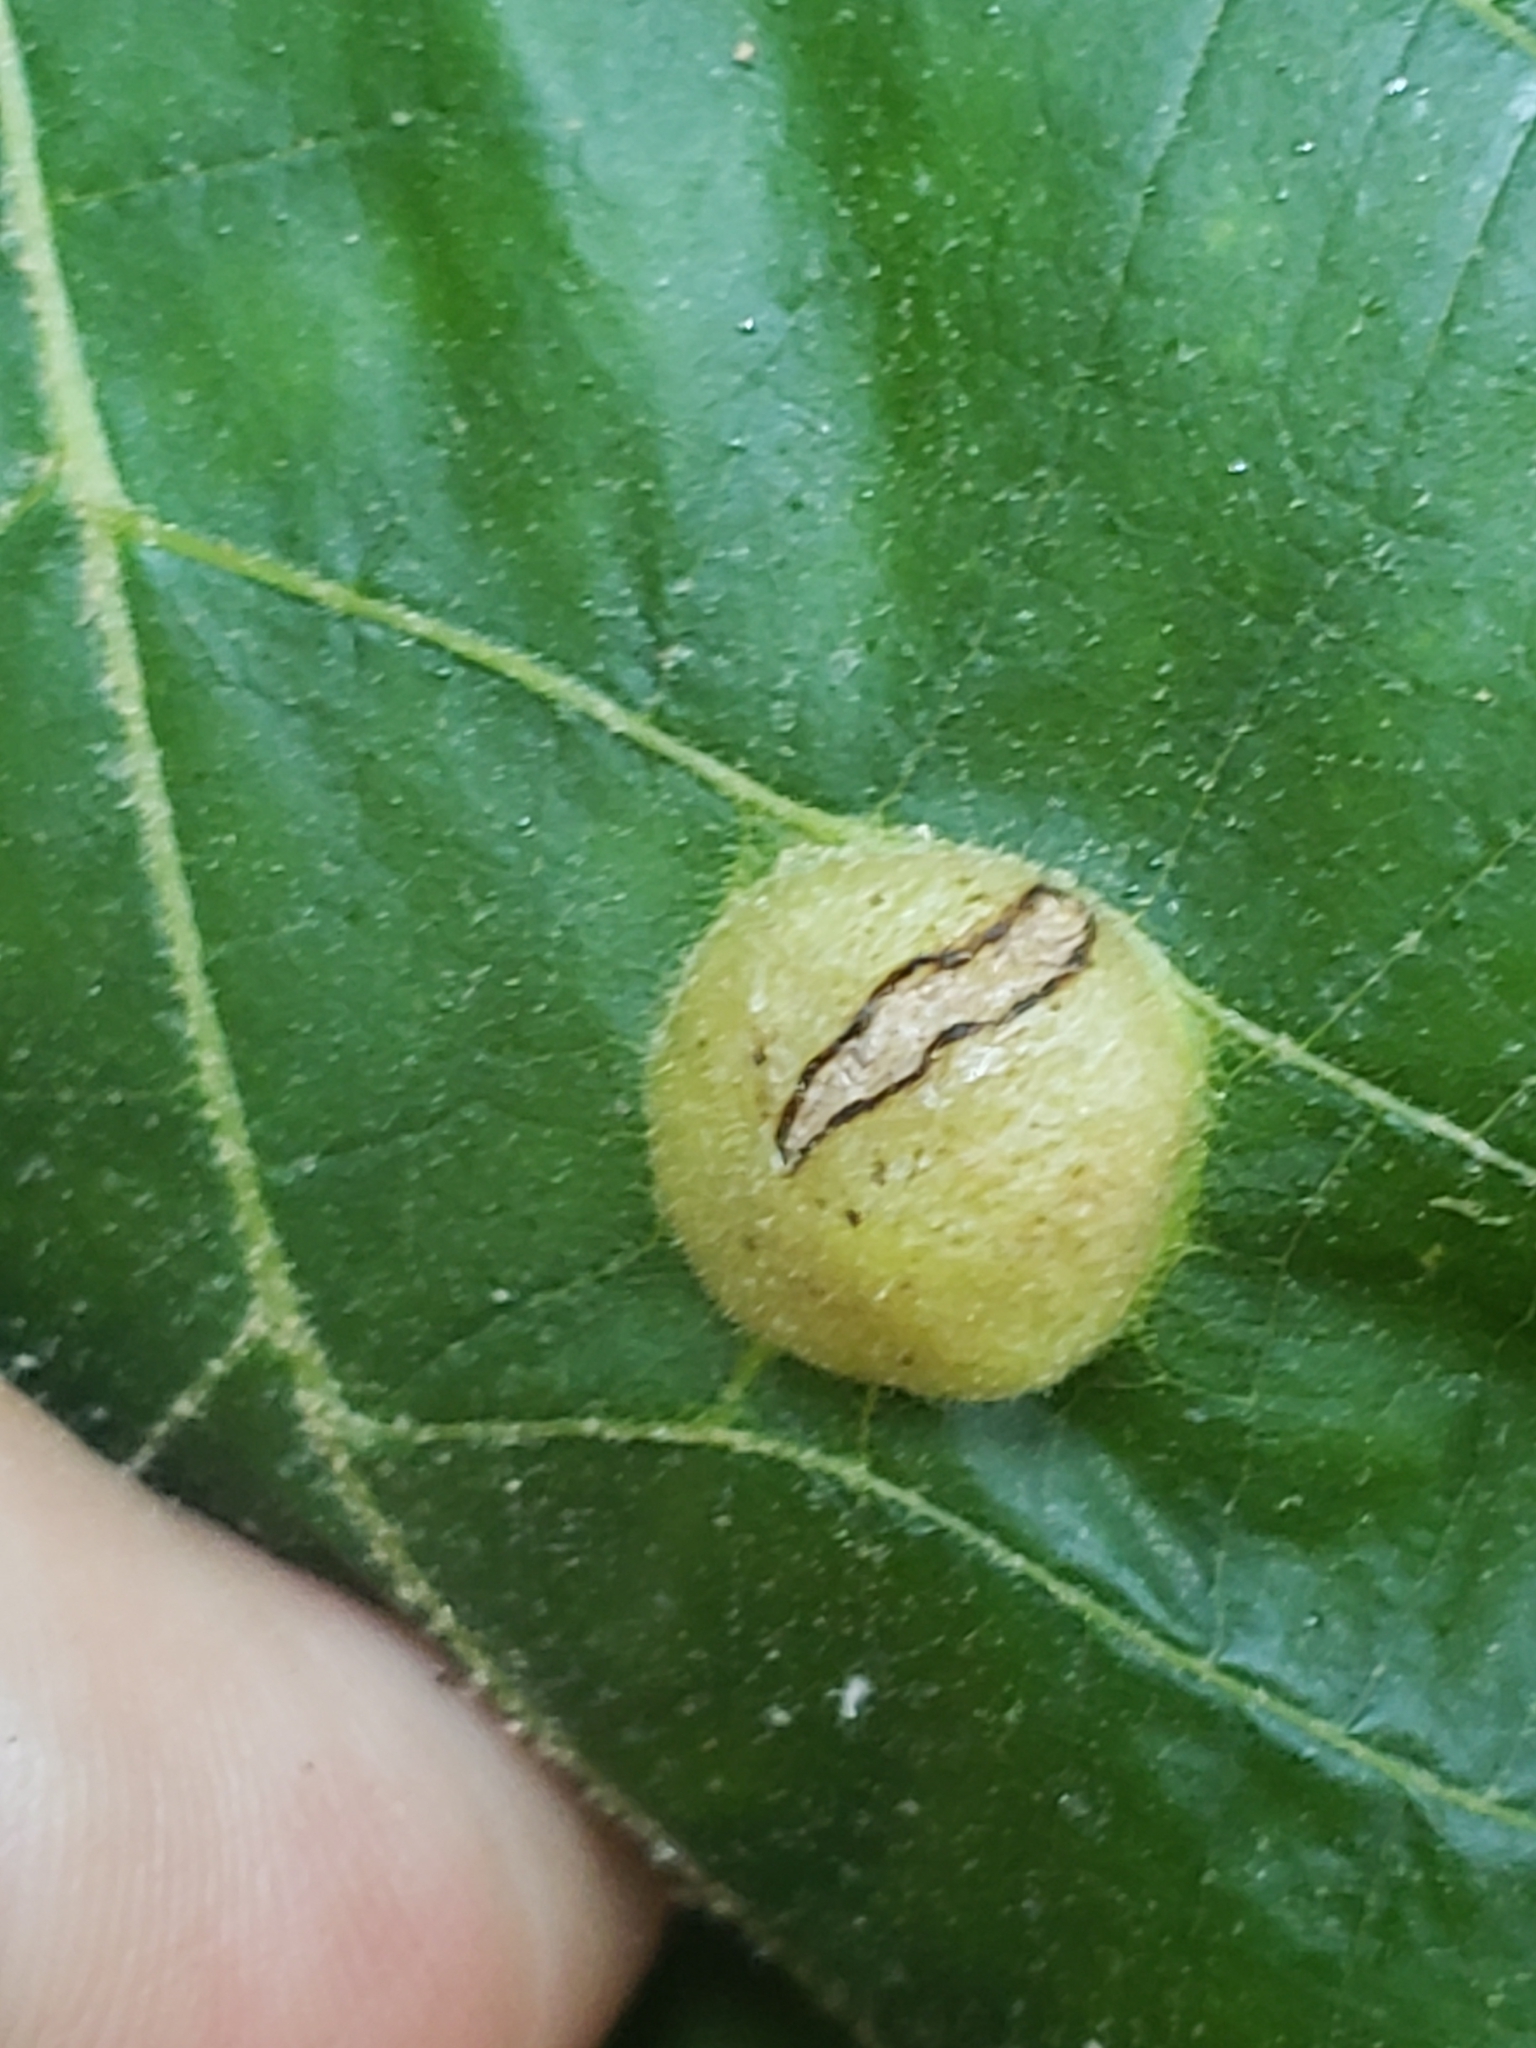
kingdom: Animalia
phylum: Arthropoda
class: Insecta
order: Hemiptera
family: Phylloxeridae
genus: Phylloxera
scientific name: Phylloxera caryae-globuli
